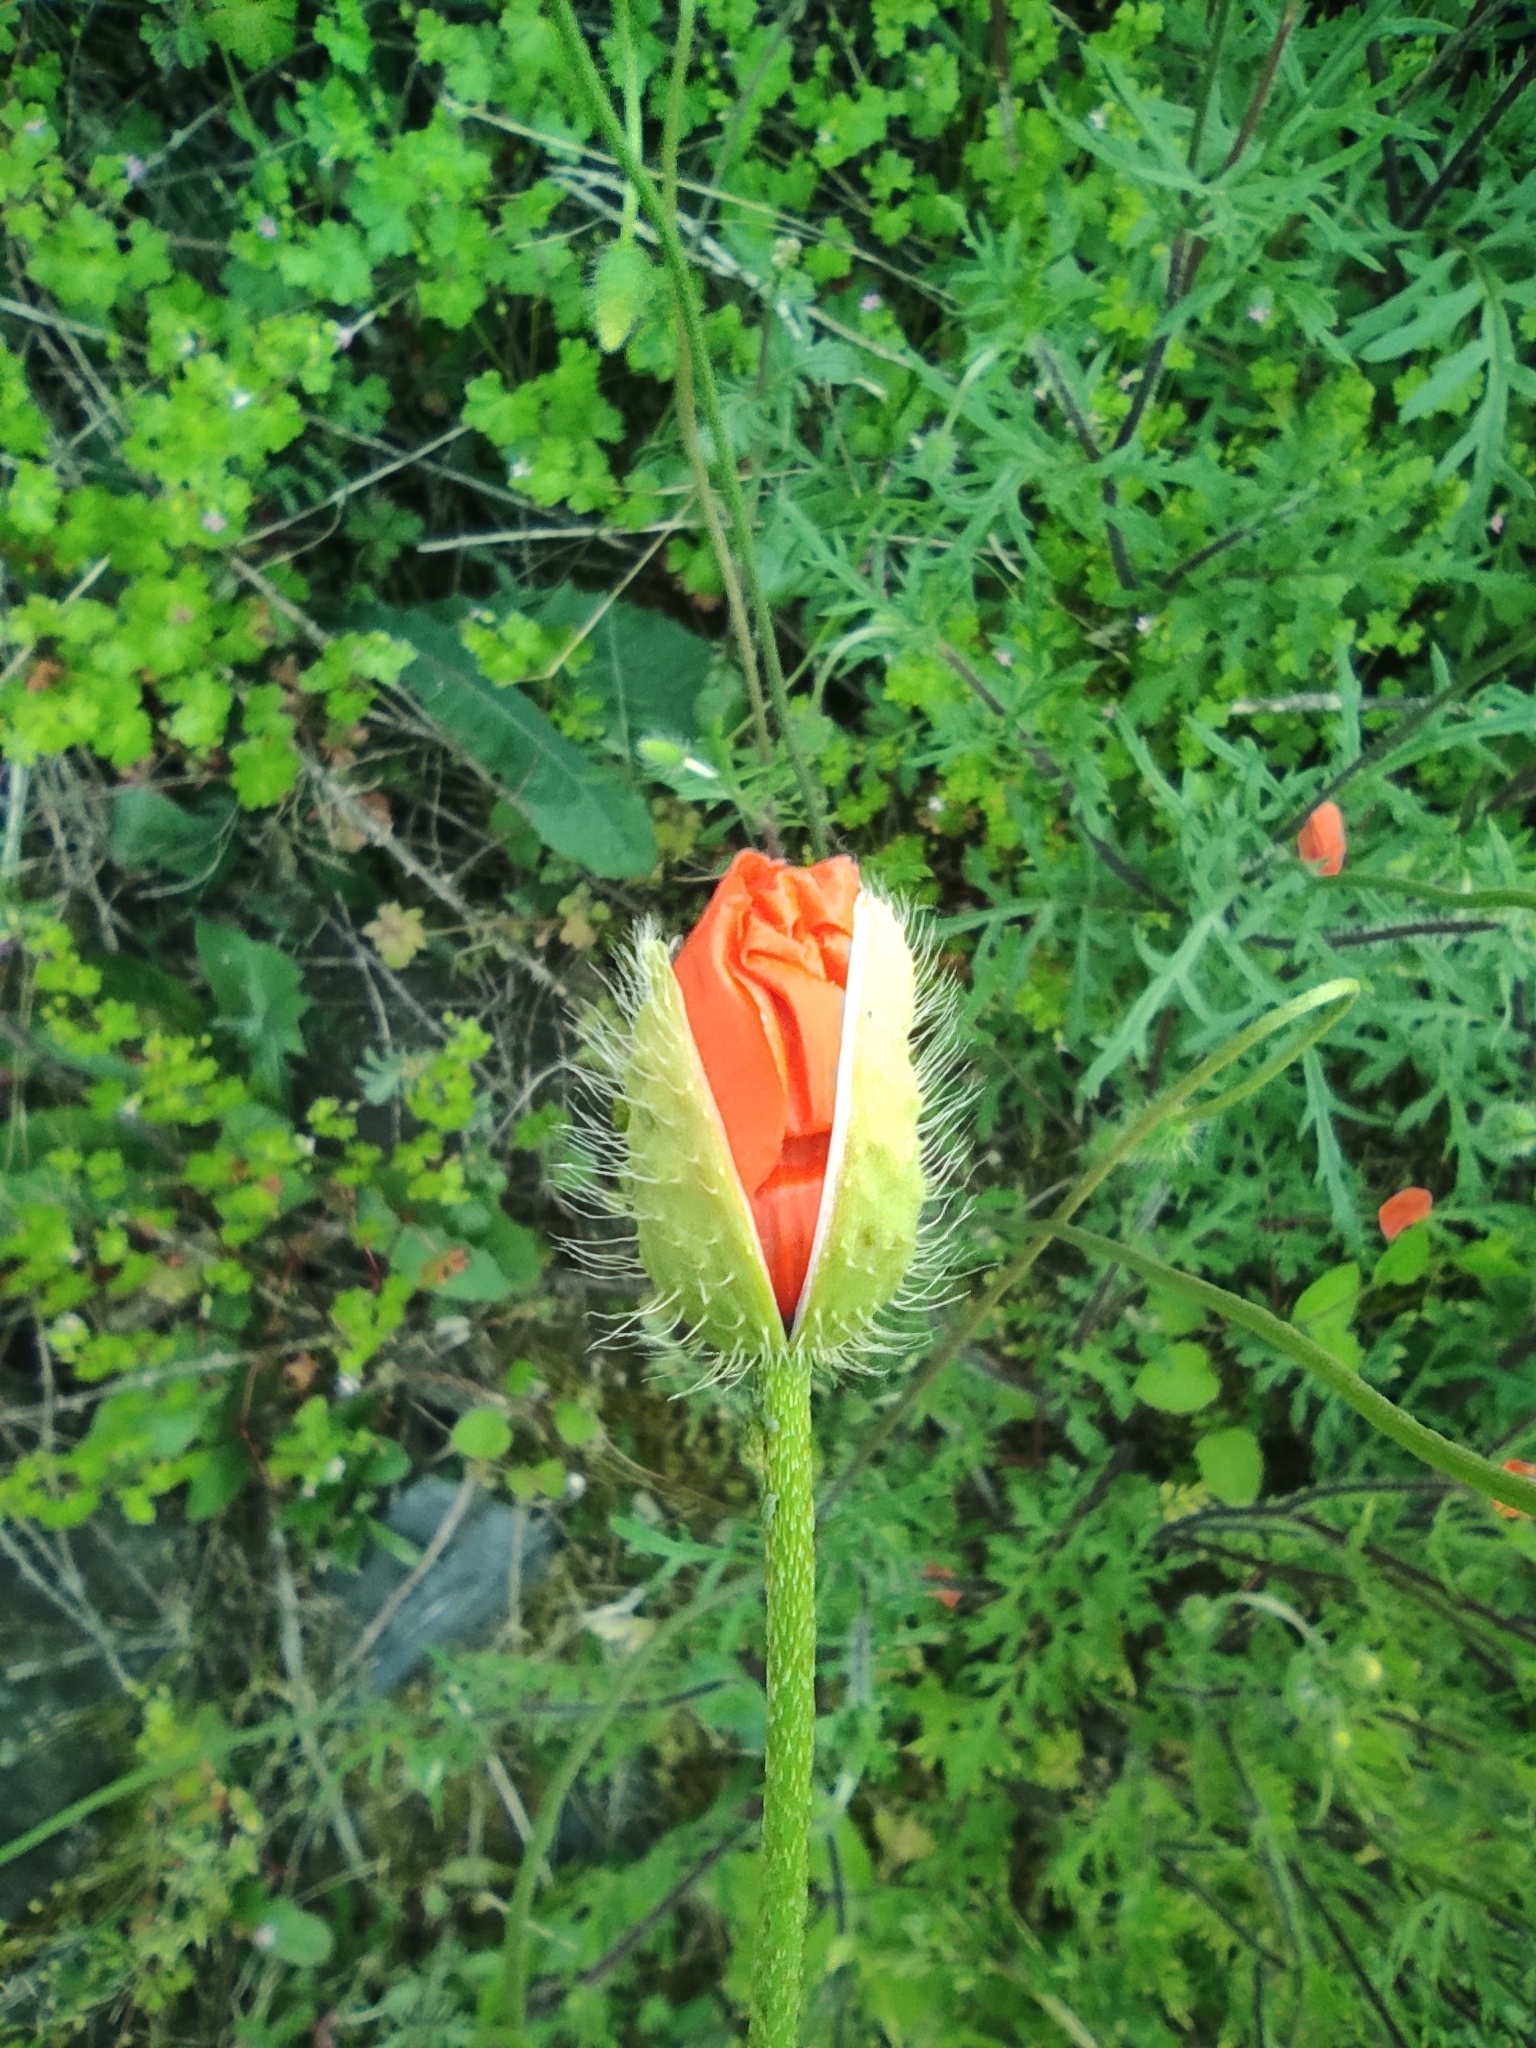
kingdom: Plantae
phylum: Tracheophyta
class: Magnoliopsida
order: Ranunculales
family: Papaveraceae
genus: Papaver
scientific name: Papaver dubium
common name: Long-headed poppy
